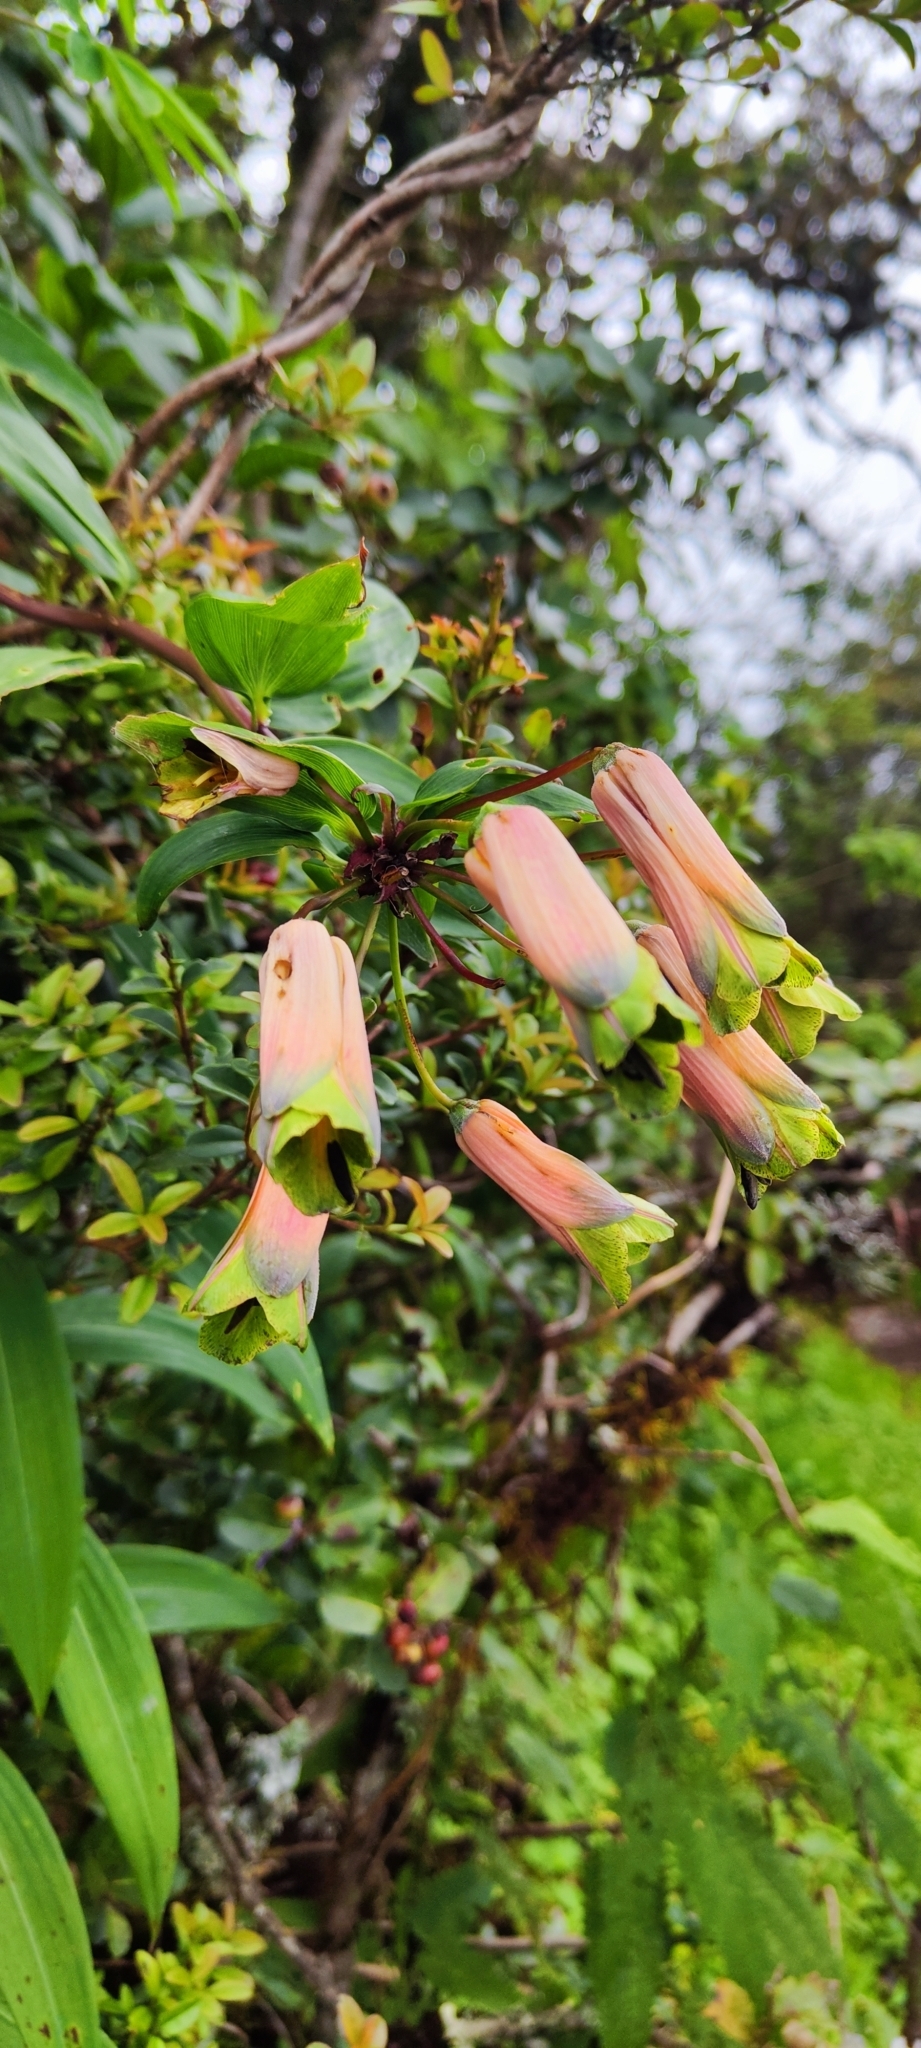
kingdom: Plantae
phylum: Tracheophyta
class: Liliopsida
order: Liliales
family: Alstroemeriaceae
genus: Bomarea
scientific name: Bomarea angulata
